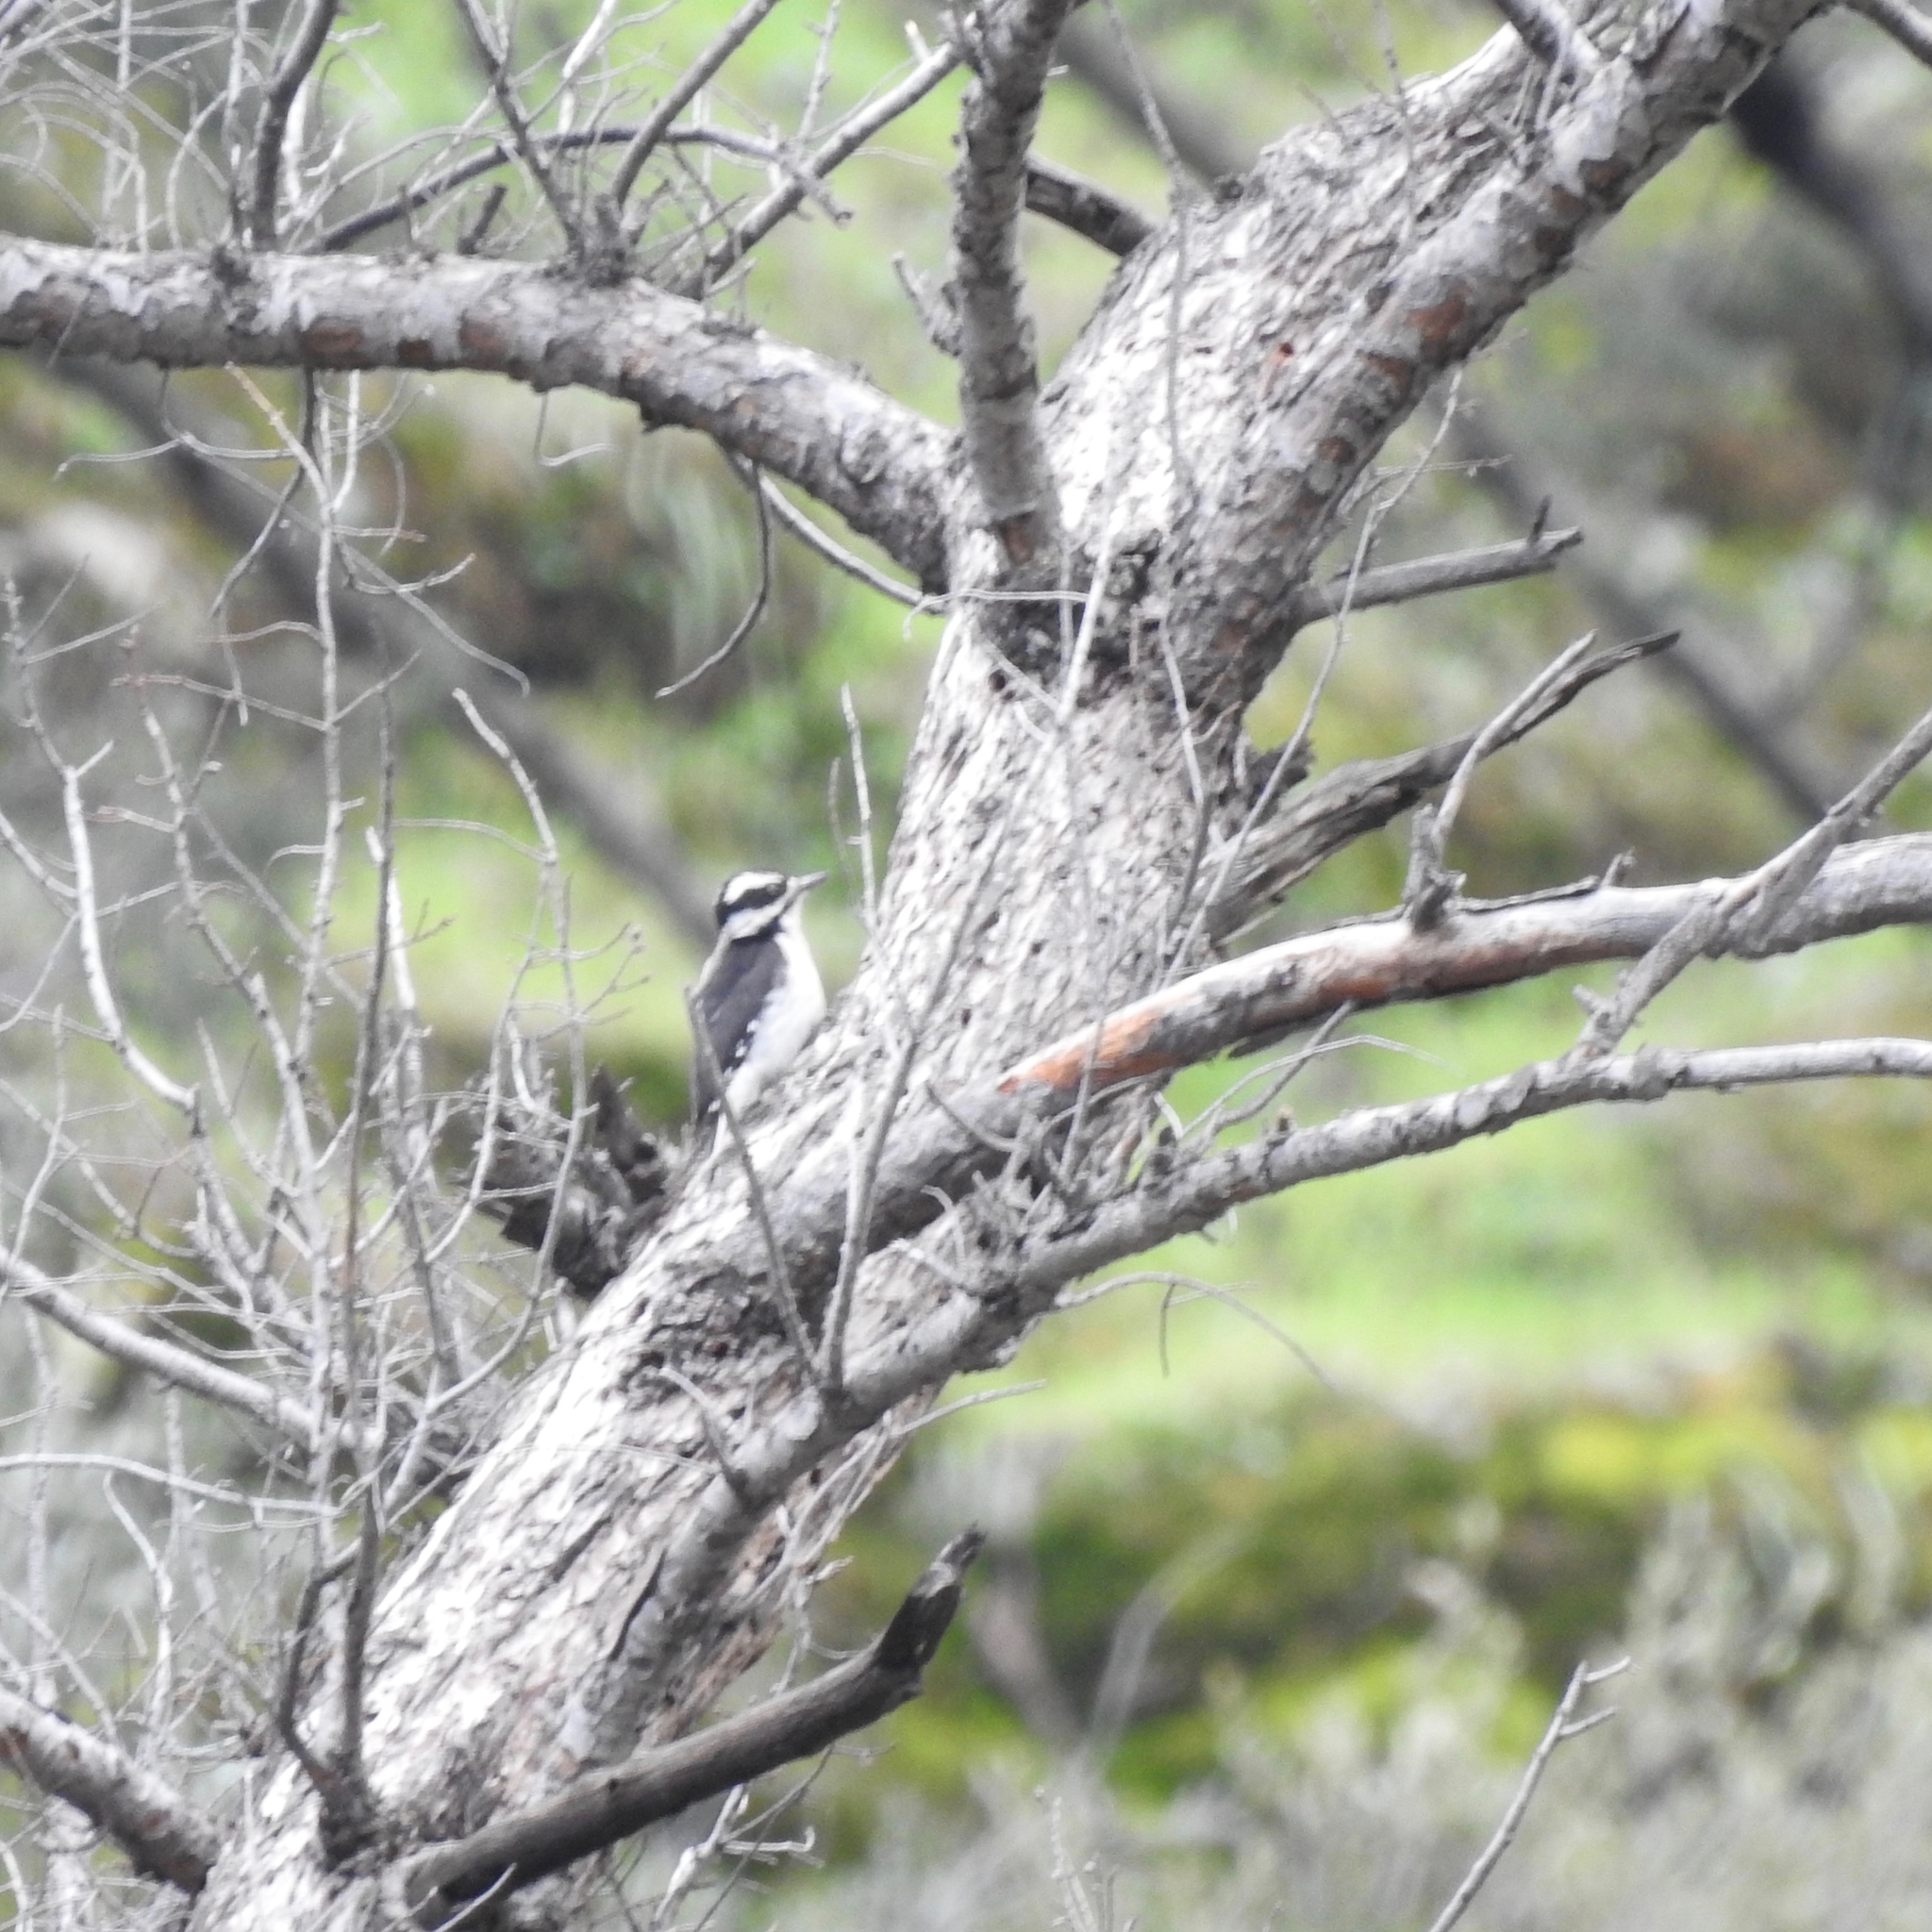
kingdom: Animalia
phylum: Chordata
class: Aves
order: Piciformes
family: Picidae
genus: Leuconotopicus
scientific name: Leuconotopicus villosus
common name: Hairy woodpecker
